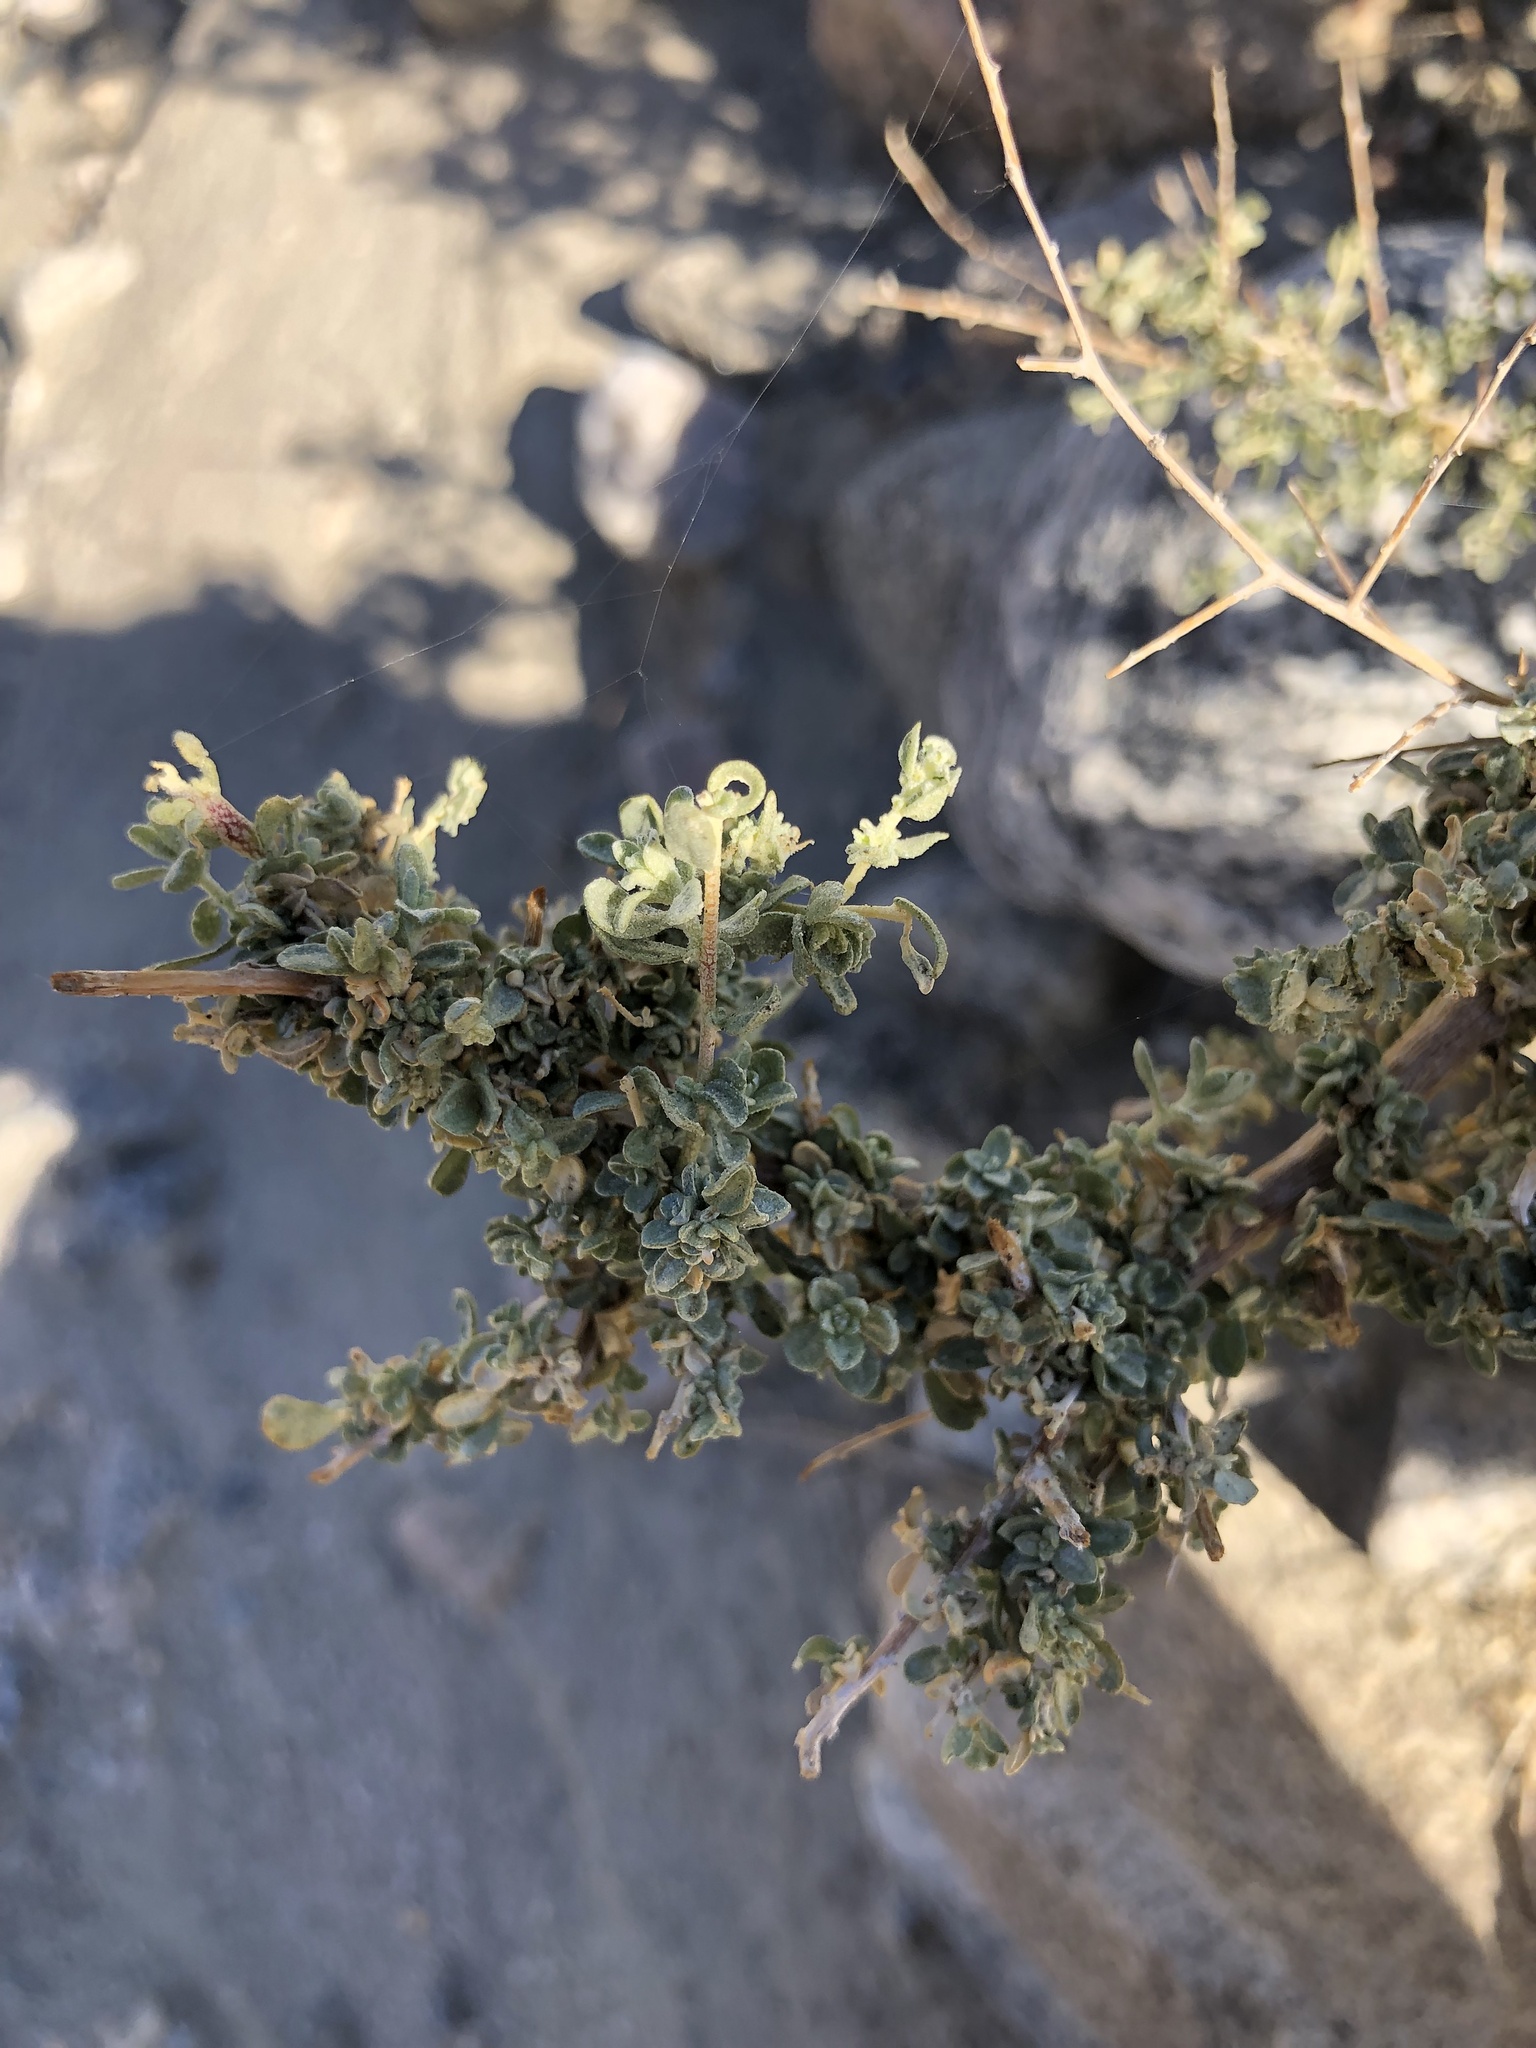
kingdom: Plantae
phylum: Tracheophyta
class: Magnoliopsida
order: Caryophyllales
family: Amaranthaceae
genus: Atriplex
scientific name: Atriplex polycarpa
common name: Desert saltbush
